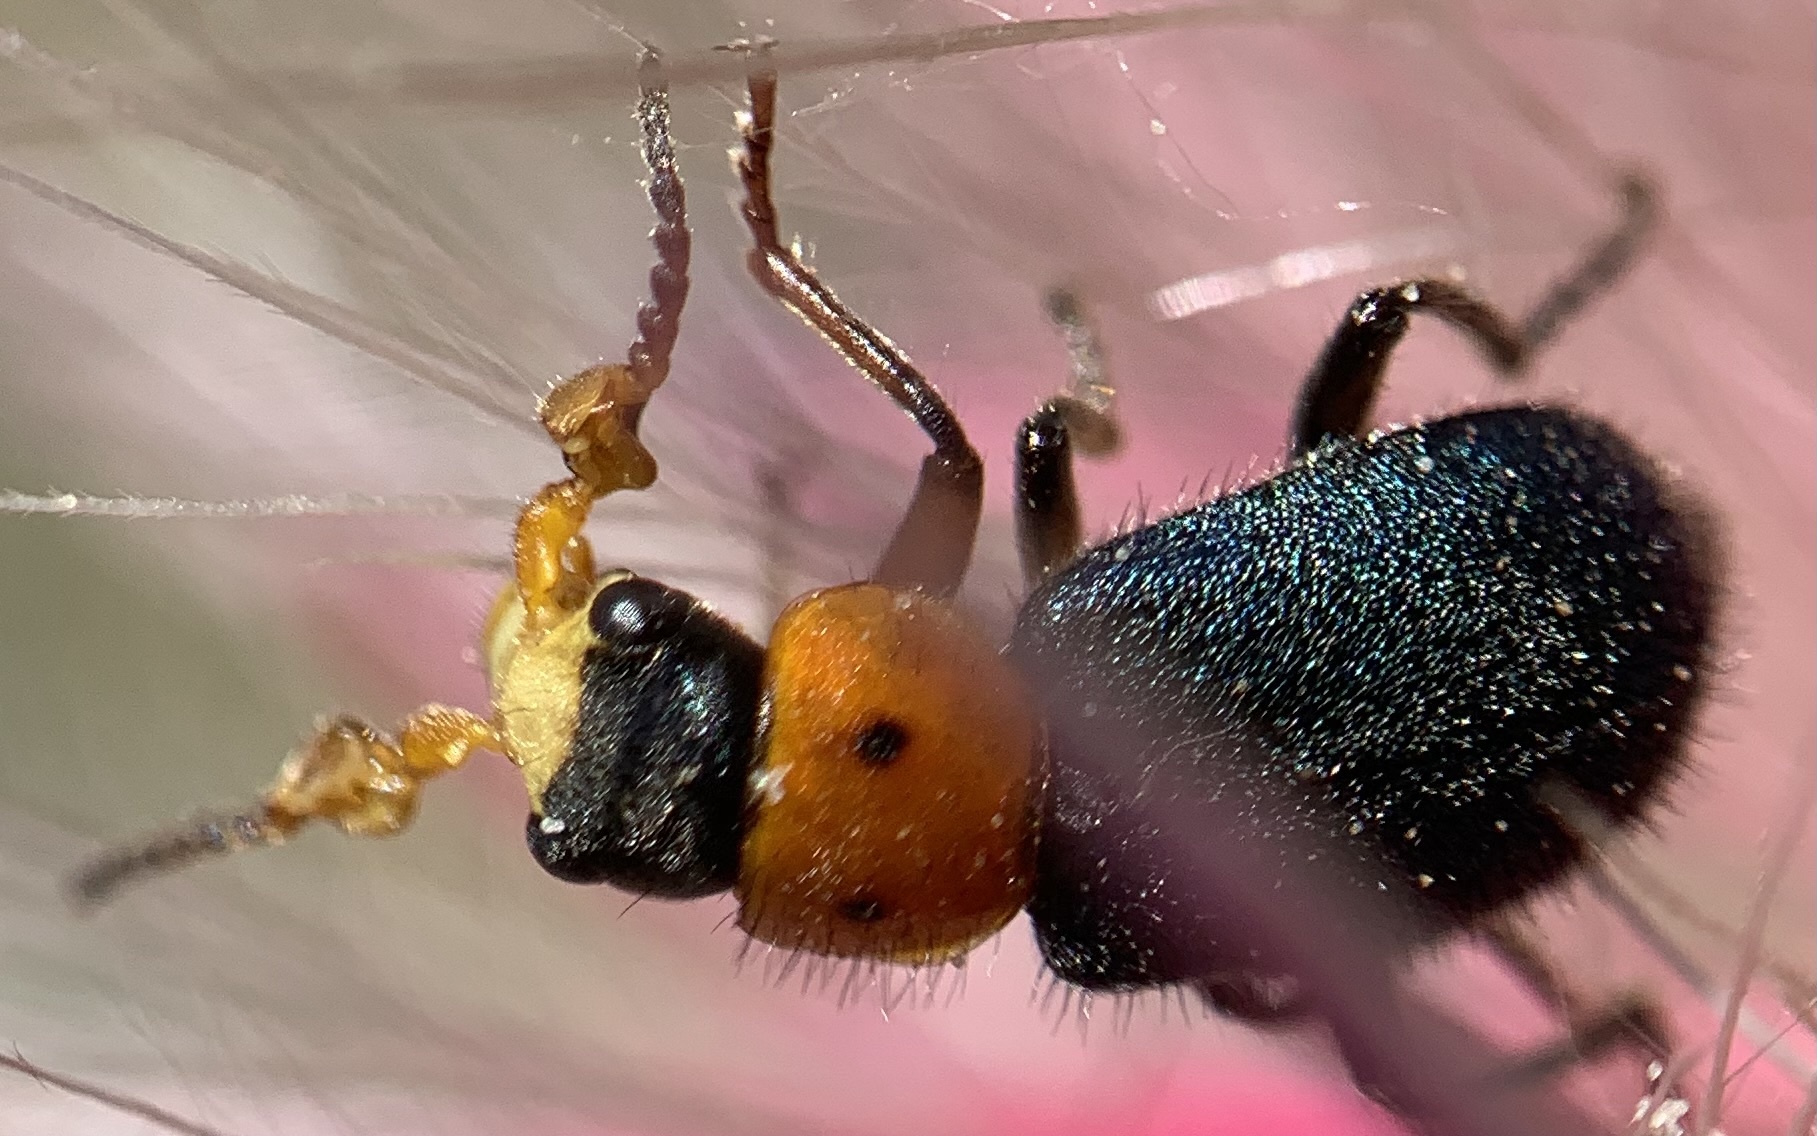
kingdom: Animalia
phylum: Arthropoda
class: Insecta
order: Coleoptera
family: Melyridae
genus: Collops
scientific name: Collops bipunctatus
